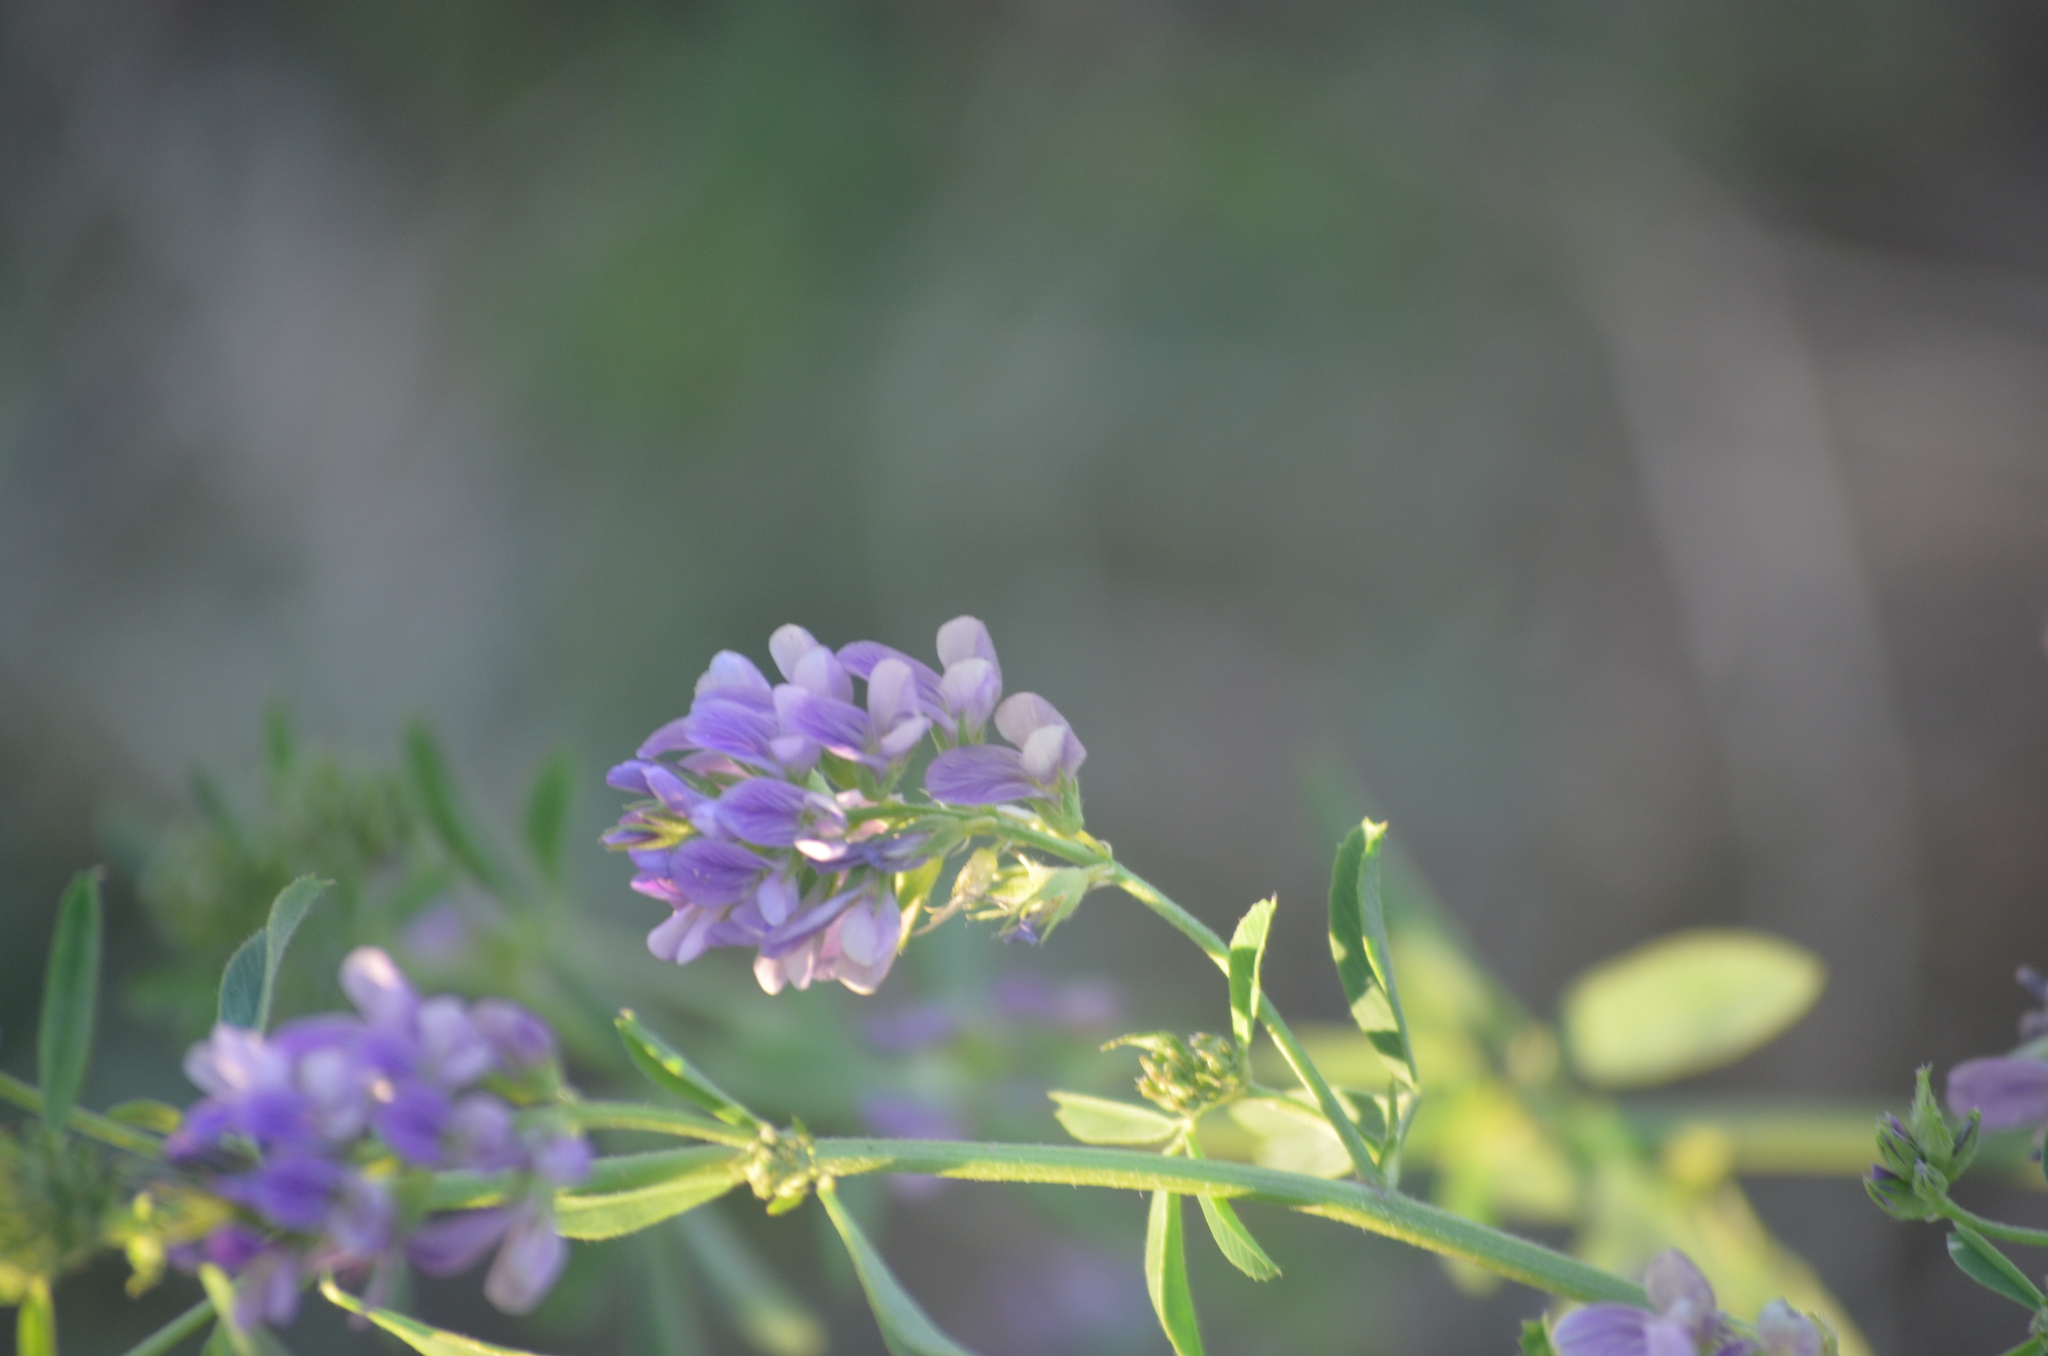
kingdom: Plantae
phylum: Tracheophyta
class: Magnoliopsida
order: Fabales
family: Fabaceae
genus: Medicago
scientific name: Medicago sativa
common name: Alfalfa
